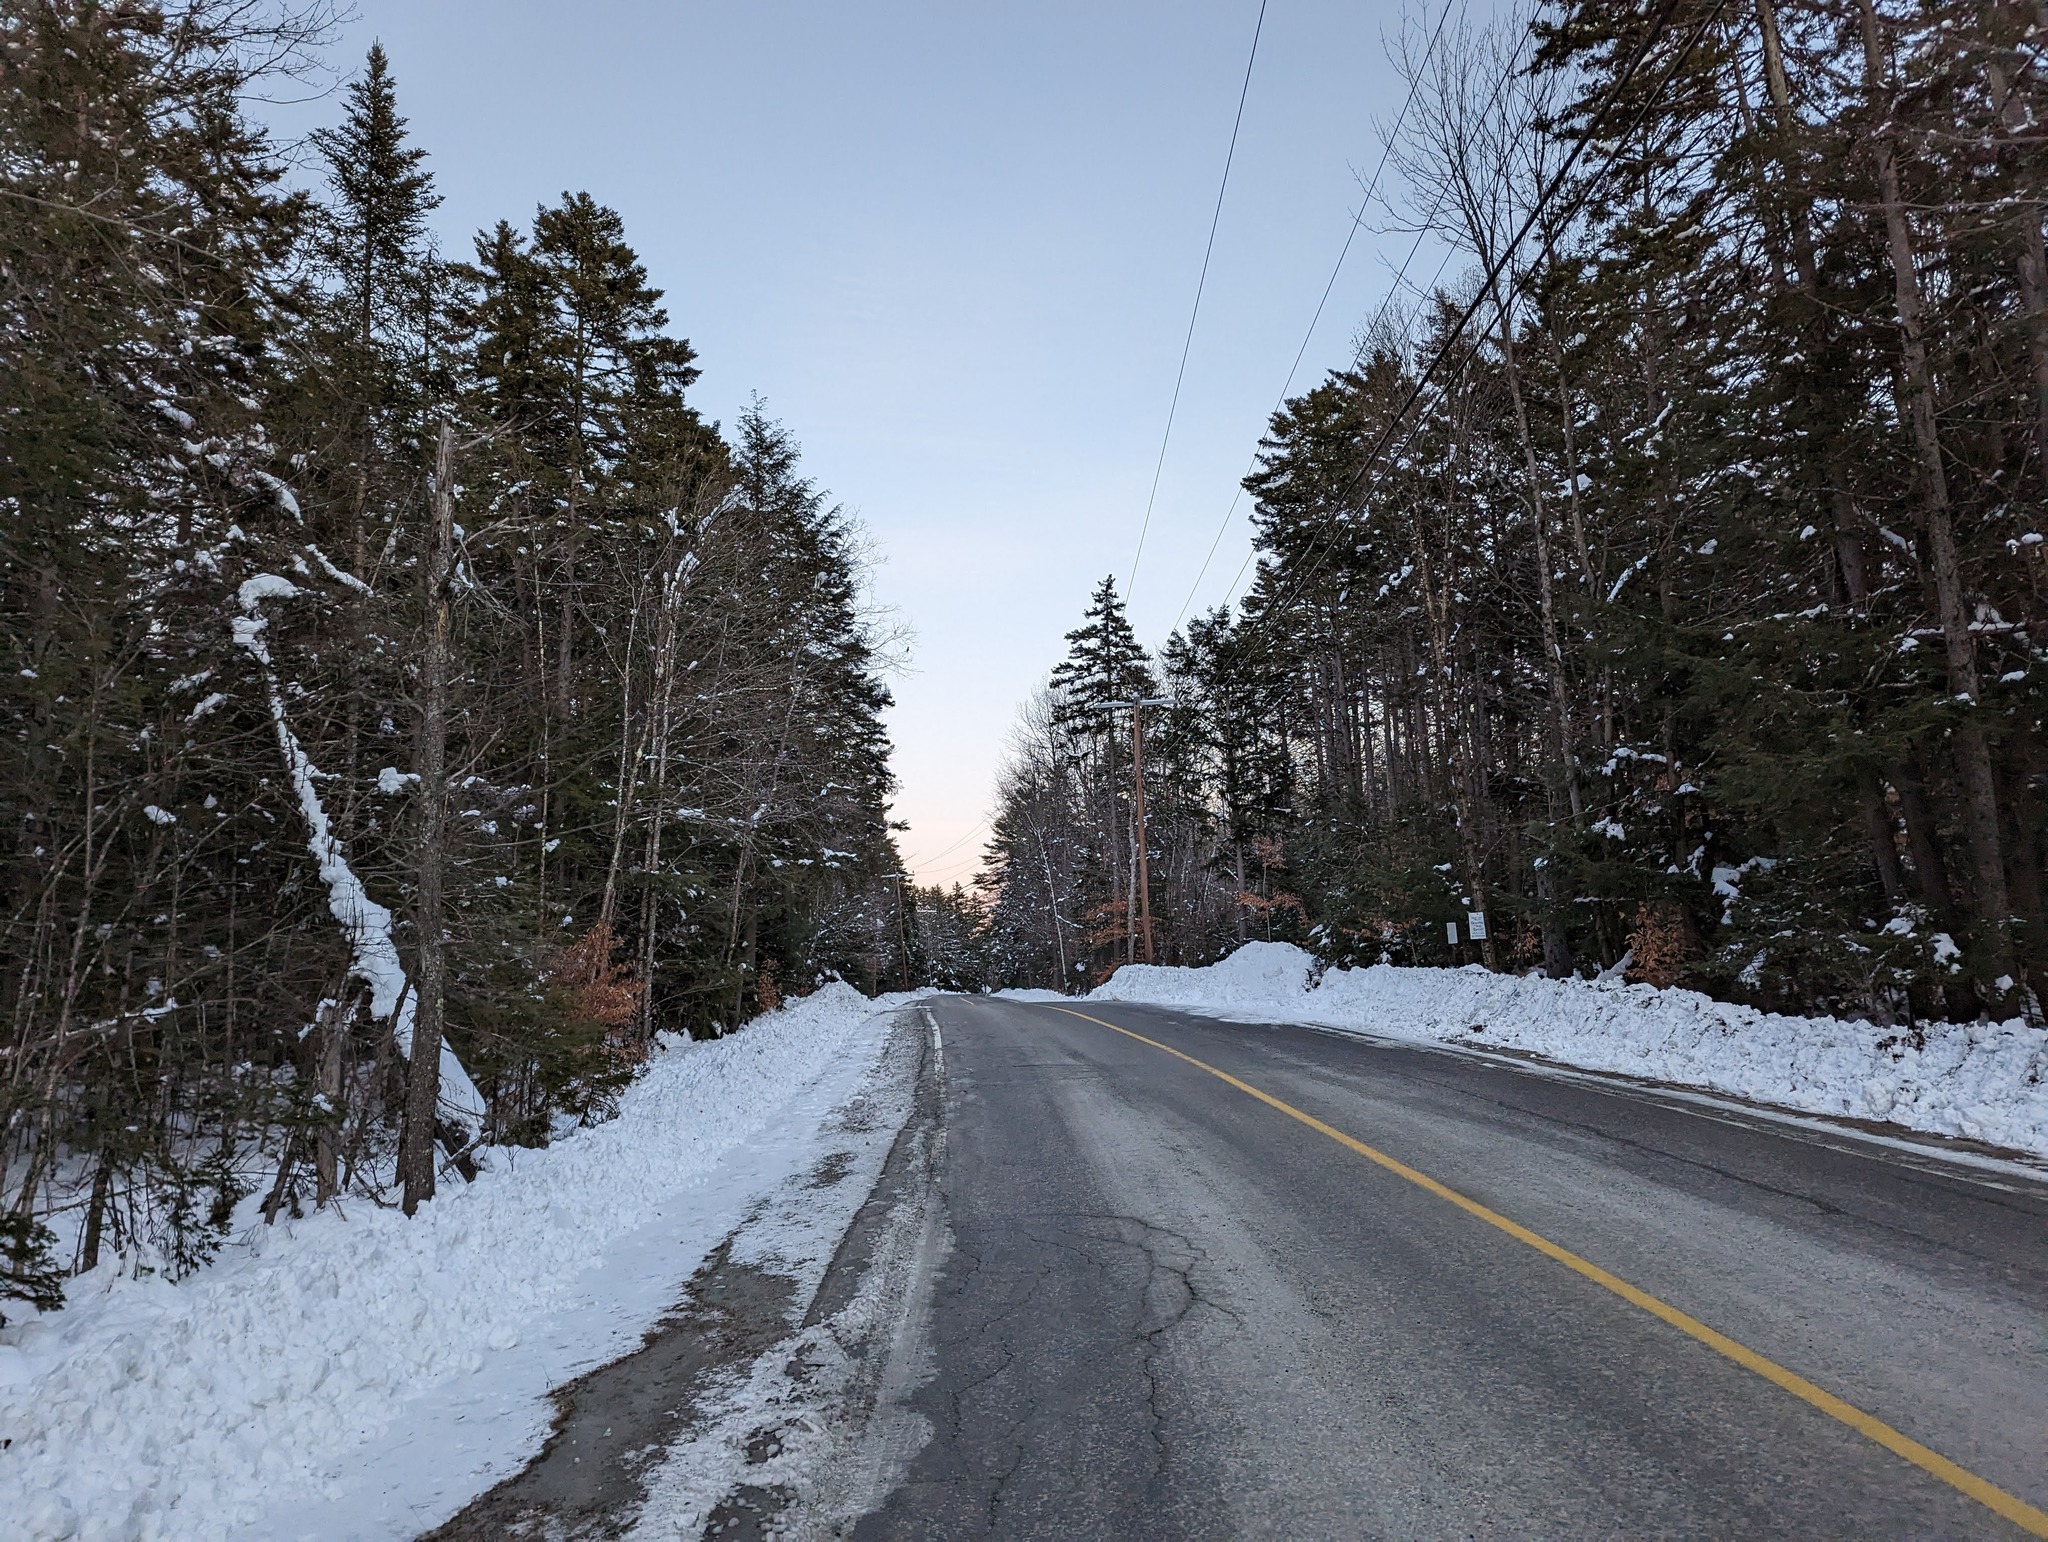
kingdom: Plantae
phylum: Tracheophyta
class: Pinopsida
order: Pinales
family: Pinaceae
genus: Tsuga
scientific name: Tsuga canadensis
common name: Eastern hemlock
